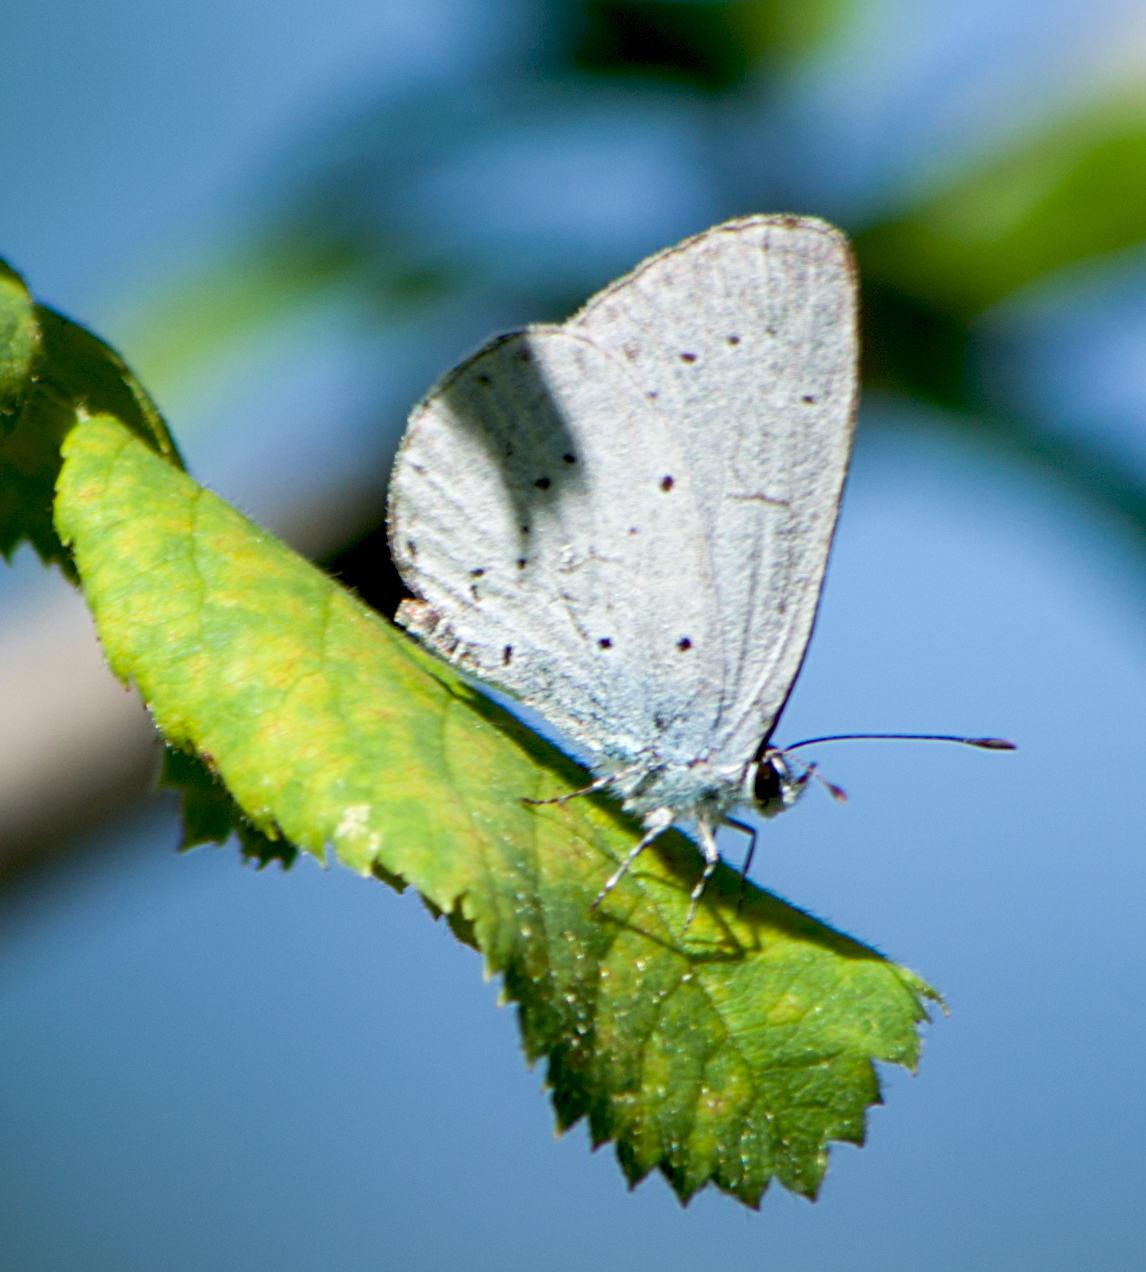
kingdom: Animalia
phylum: Arthropoda
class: Insecta
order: Lepidoptera
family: Lycaenidae
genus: Celastrina
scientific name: Celastrina argiolus
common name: Holly blue
